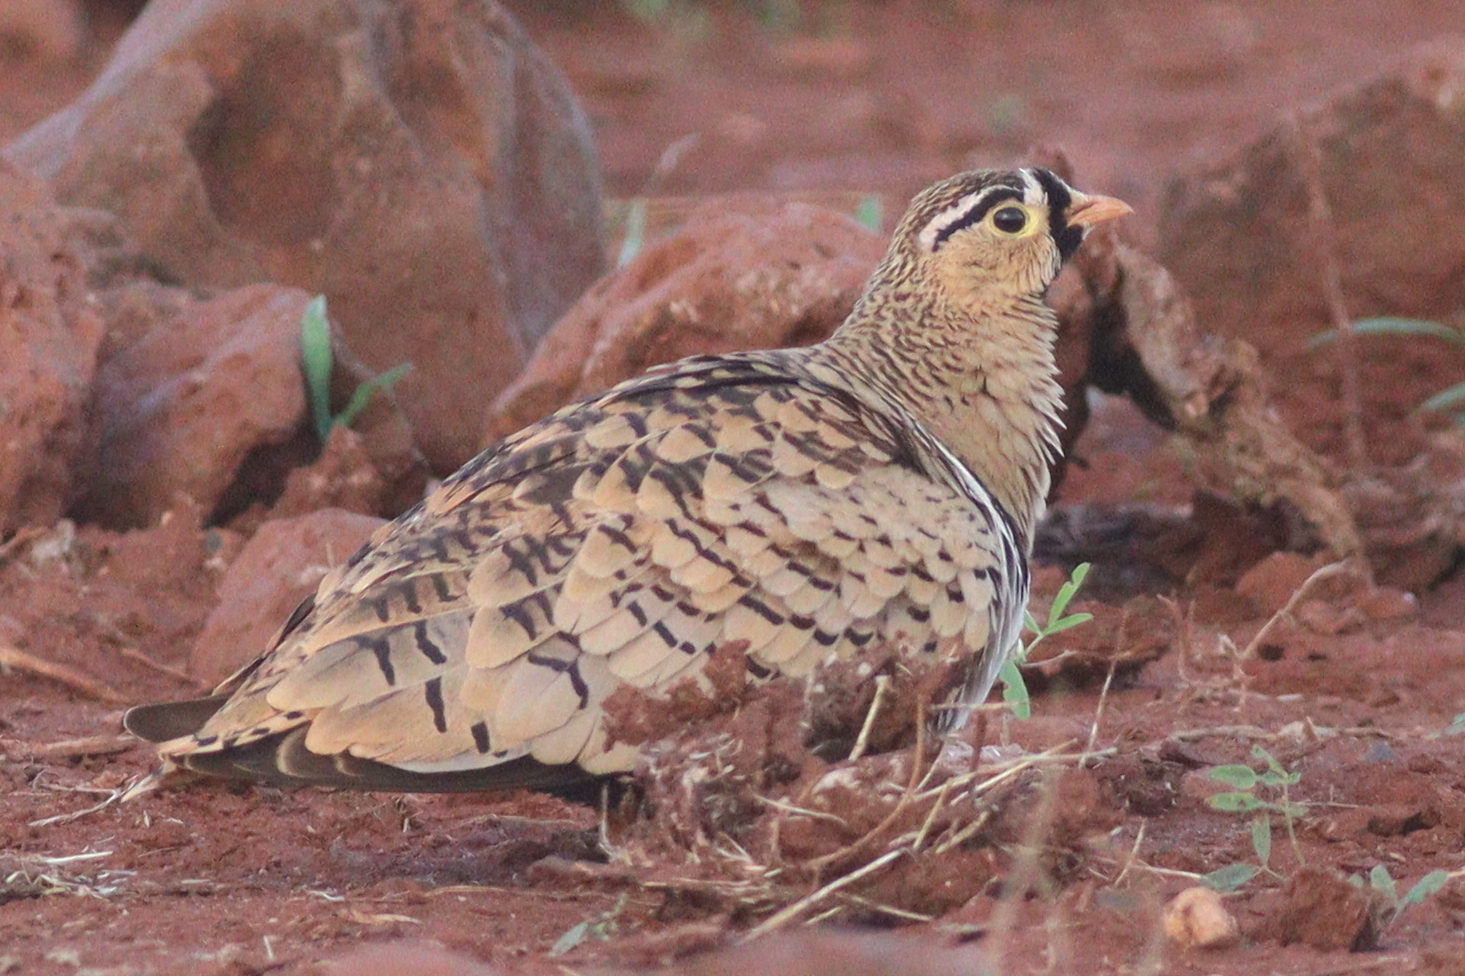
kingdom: Animalia
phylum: Chordata
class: Aves
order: Pteroclidiformes
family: Pteroclididae
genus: Pterocles
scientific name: Pterocles decoratus
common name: Black-faced sandgrouse
